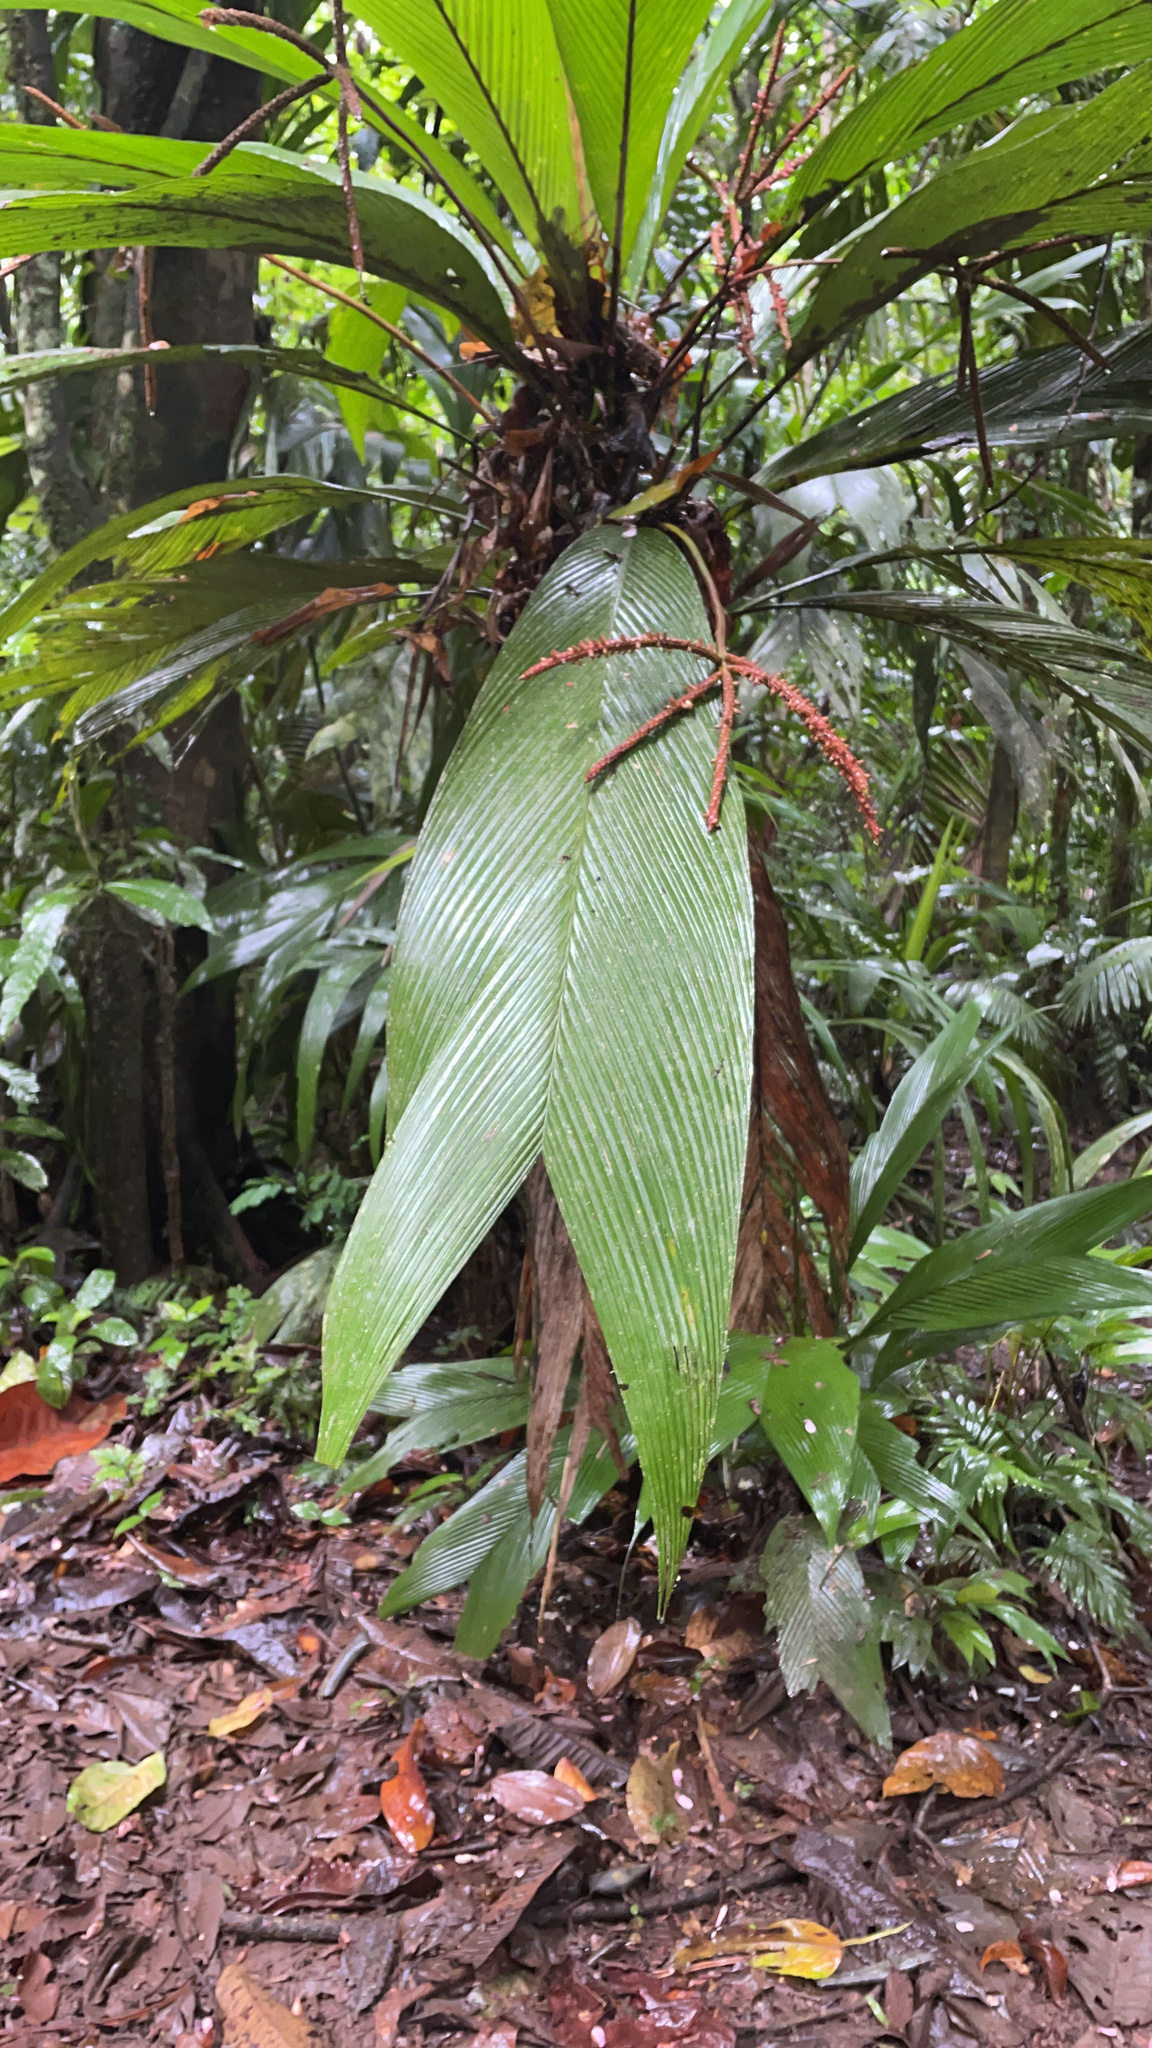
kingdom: Plantae
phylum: Tracheophyta
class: Liliopsida
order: Arecales
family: Arecaceae
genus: Geonoma
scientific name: Geonoma congesta
